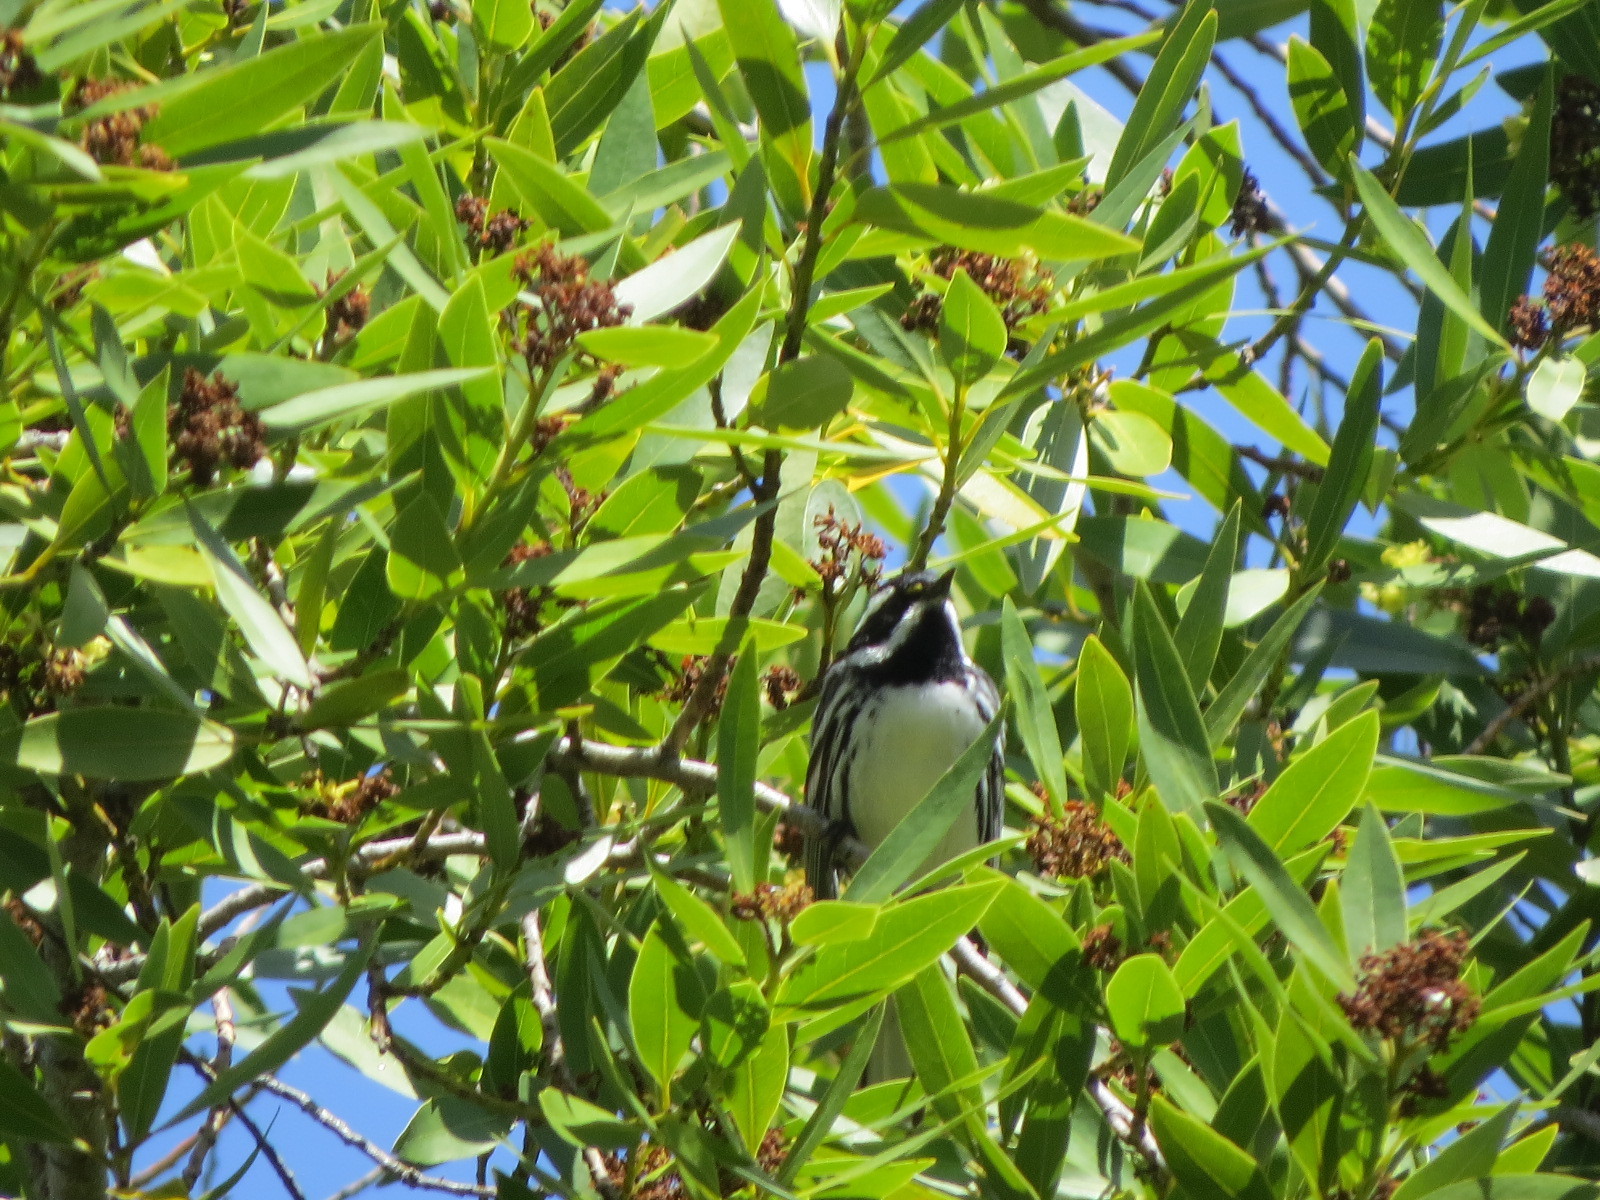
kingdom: Animalia
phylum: Chordata
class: Aves
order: Passeriformes
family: Parulidae
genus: Setophaga
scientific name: Setophaga nigrescens
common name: Black-throated gray warbler
